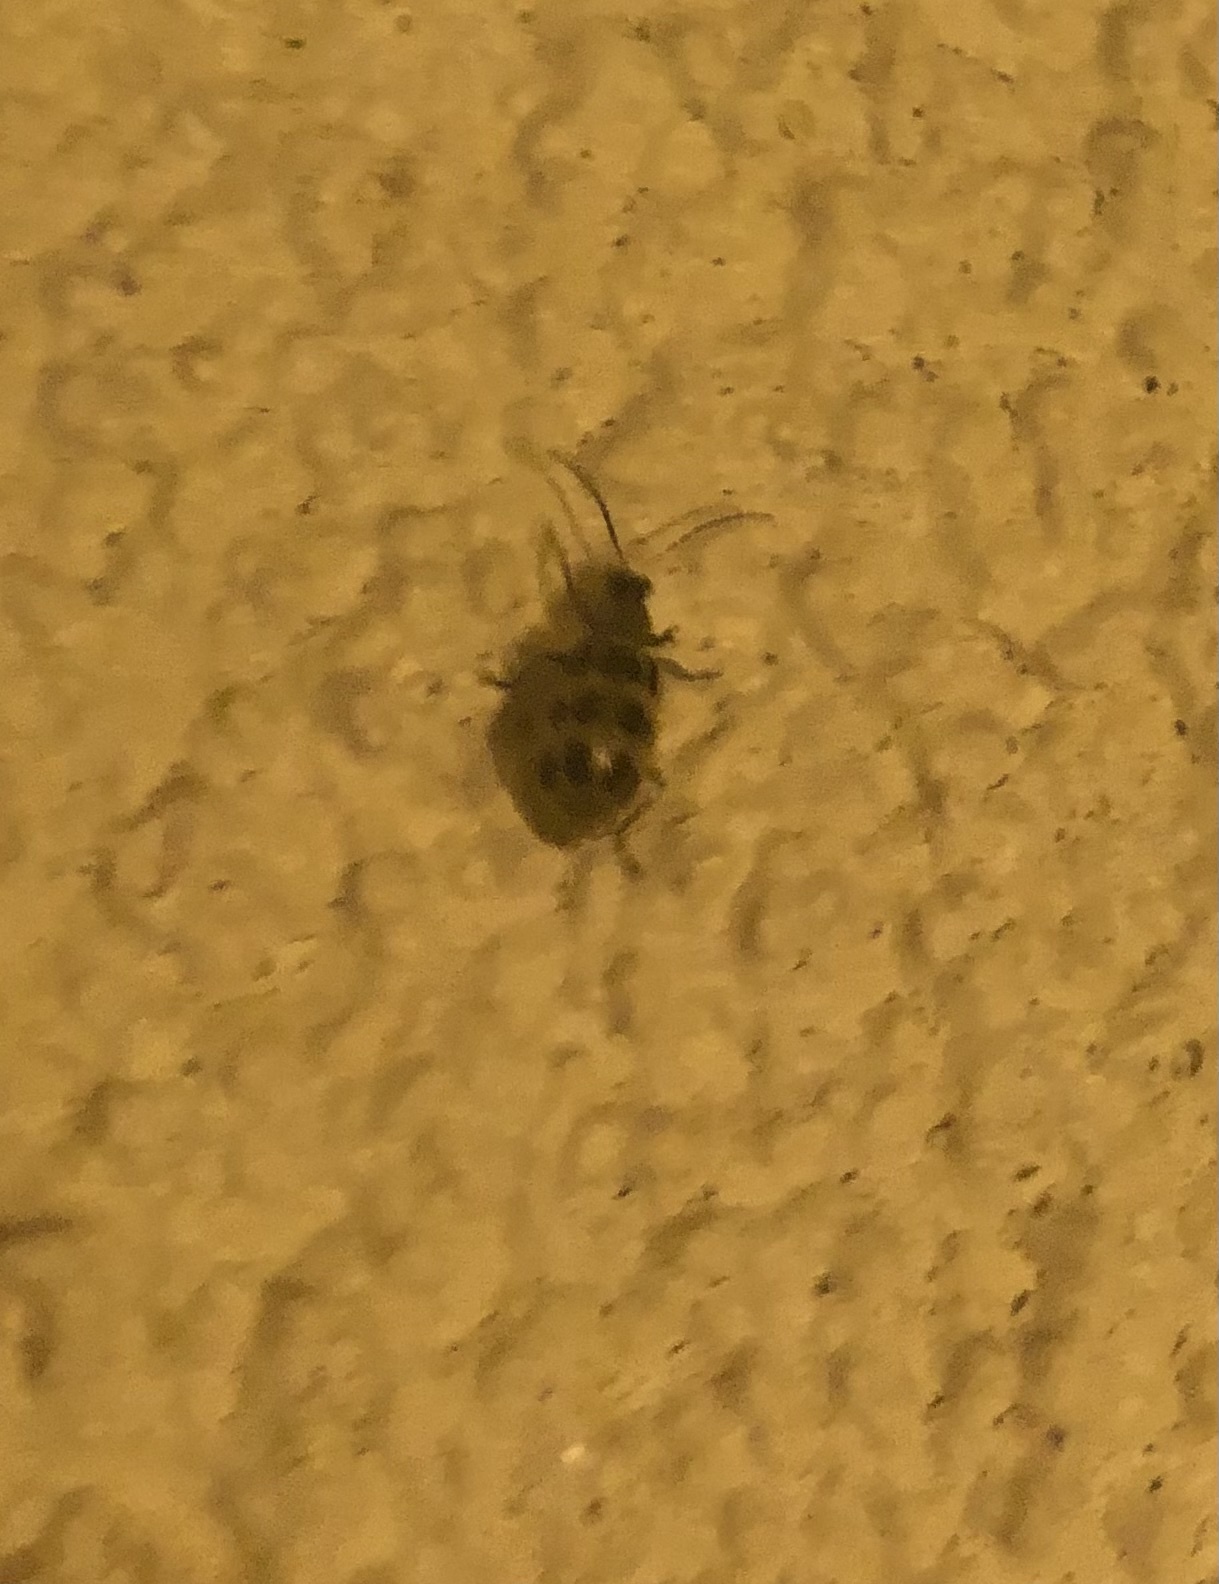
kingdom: Animalia
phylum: Arthropoda
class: Insecta
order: Coleoptera
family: Chrysomelidae
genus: Diabrotica
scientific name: Diabrotica undecimpunctata
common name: Spotted cucumber beetle
